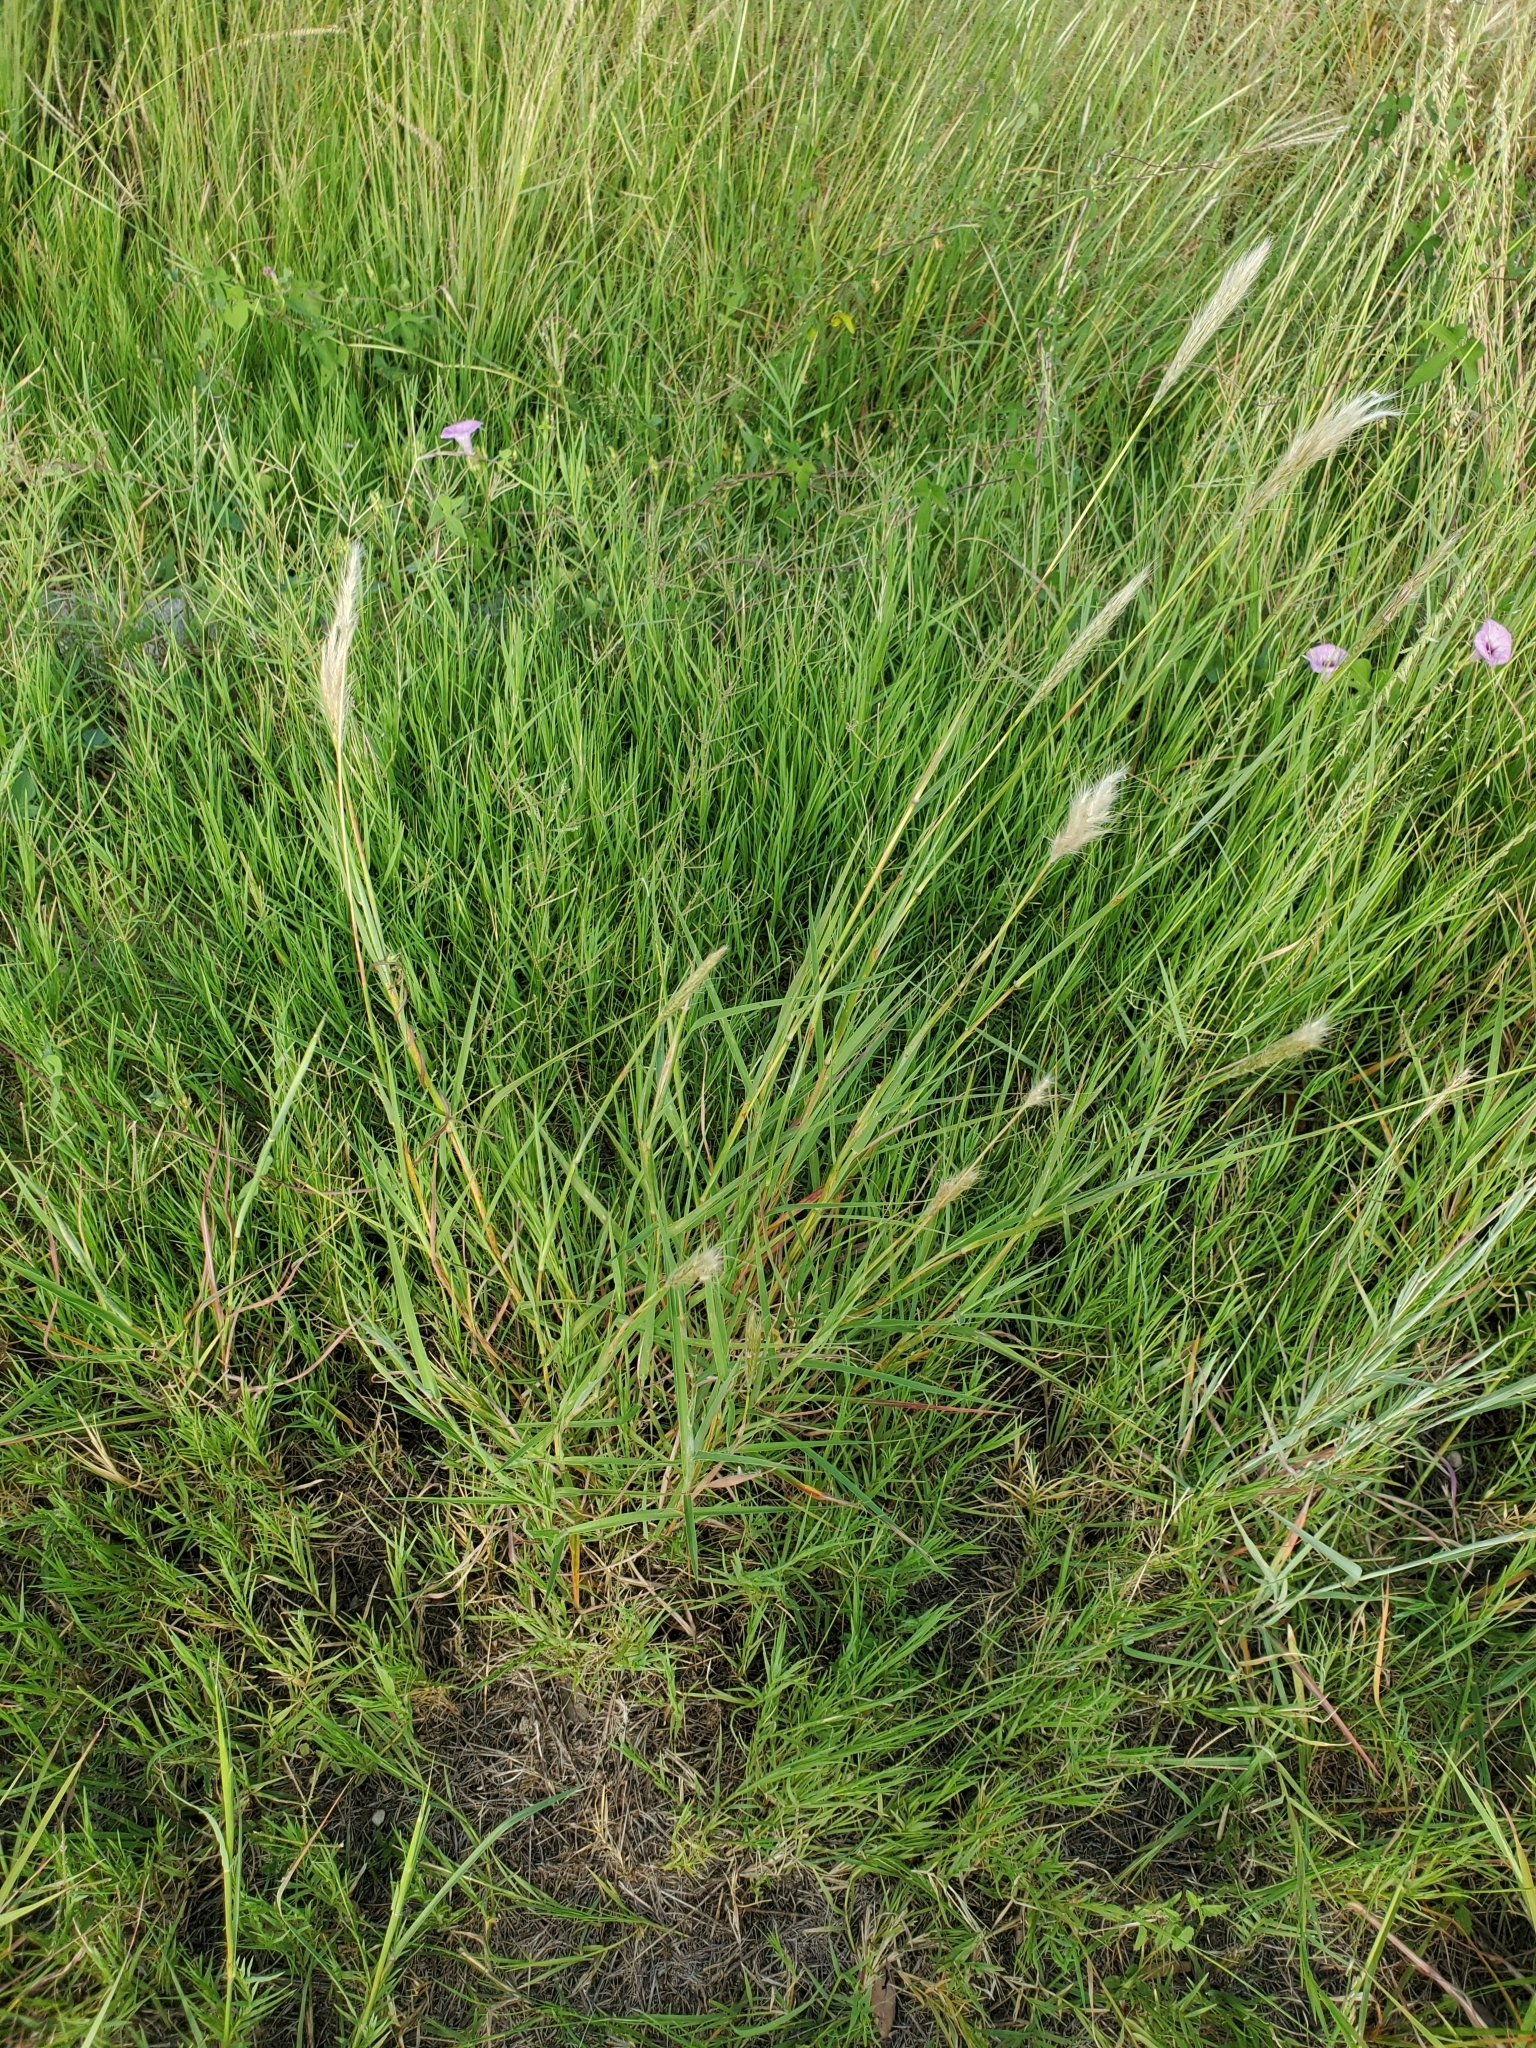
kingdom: Plantae
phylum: Tracheophyta
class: Liliopsida
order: Poales
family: Poaceae
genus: Bothriochloa
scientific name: Bothriochloa barbinodis
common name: Cane bluestem
